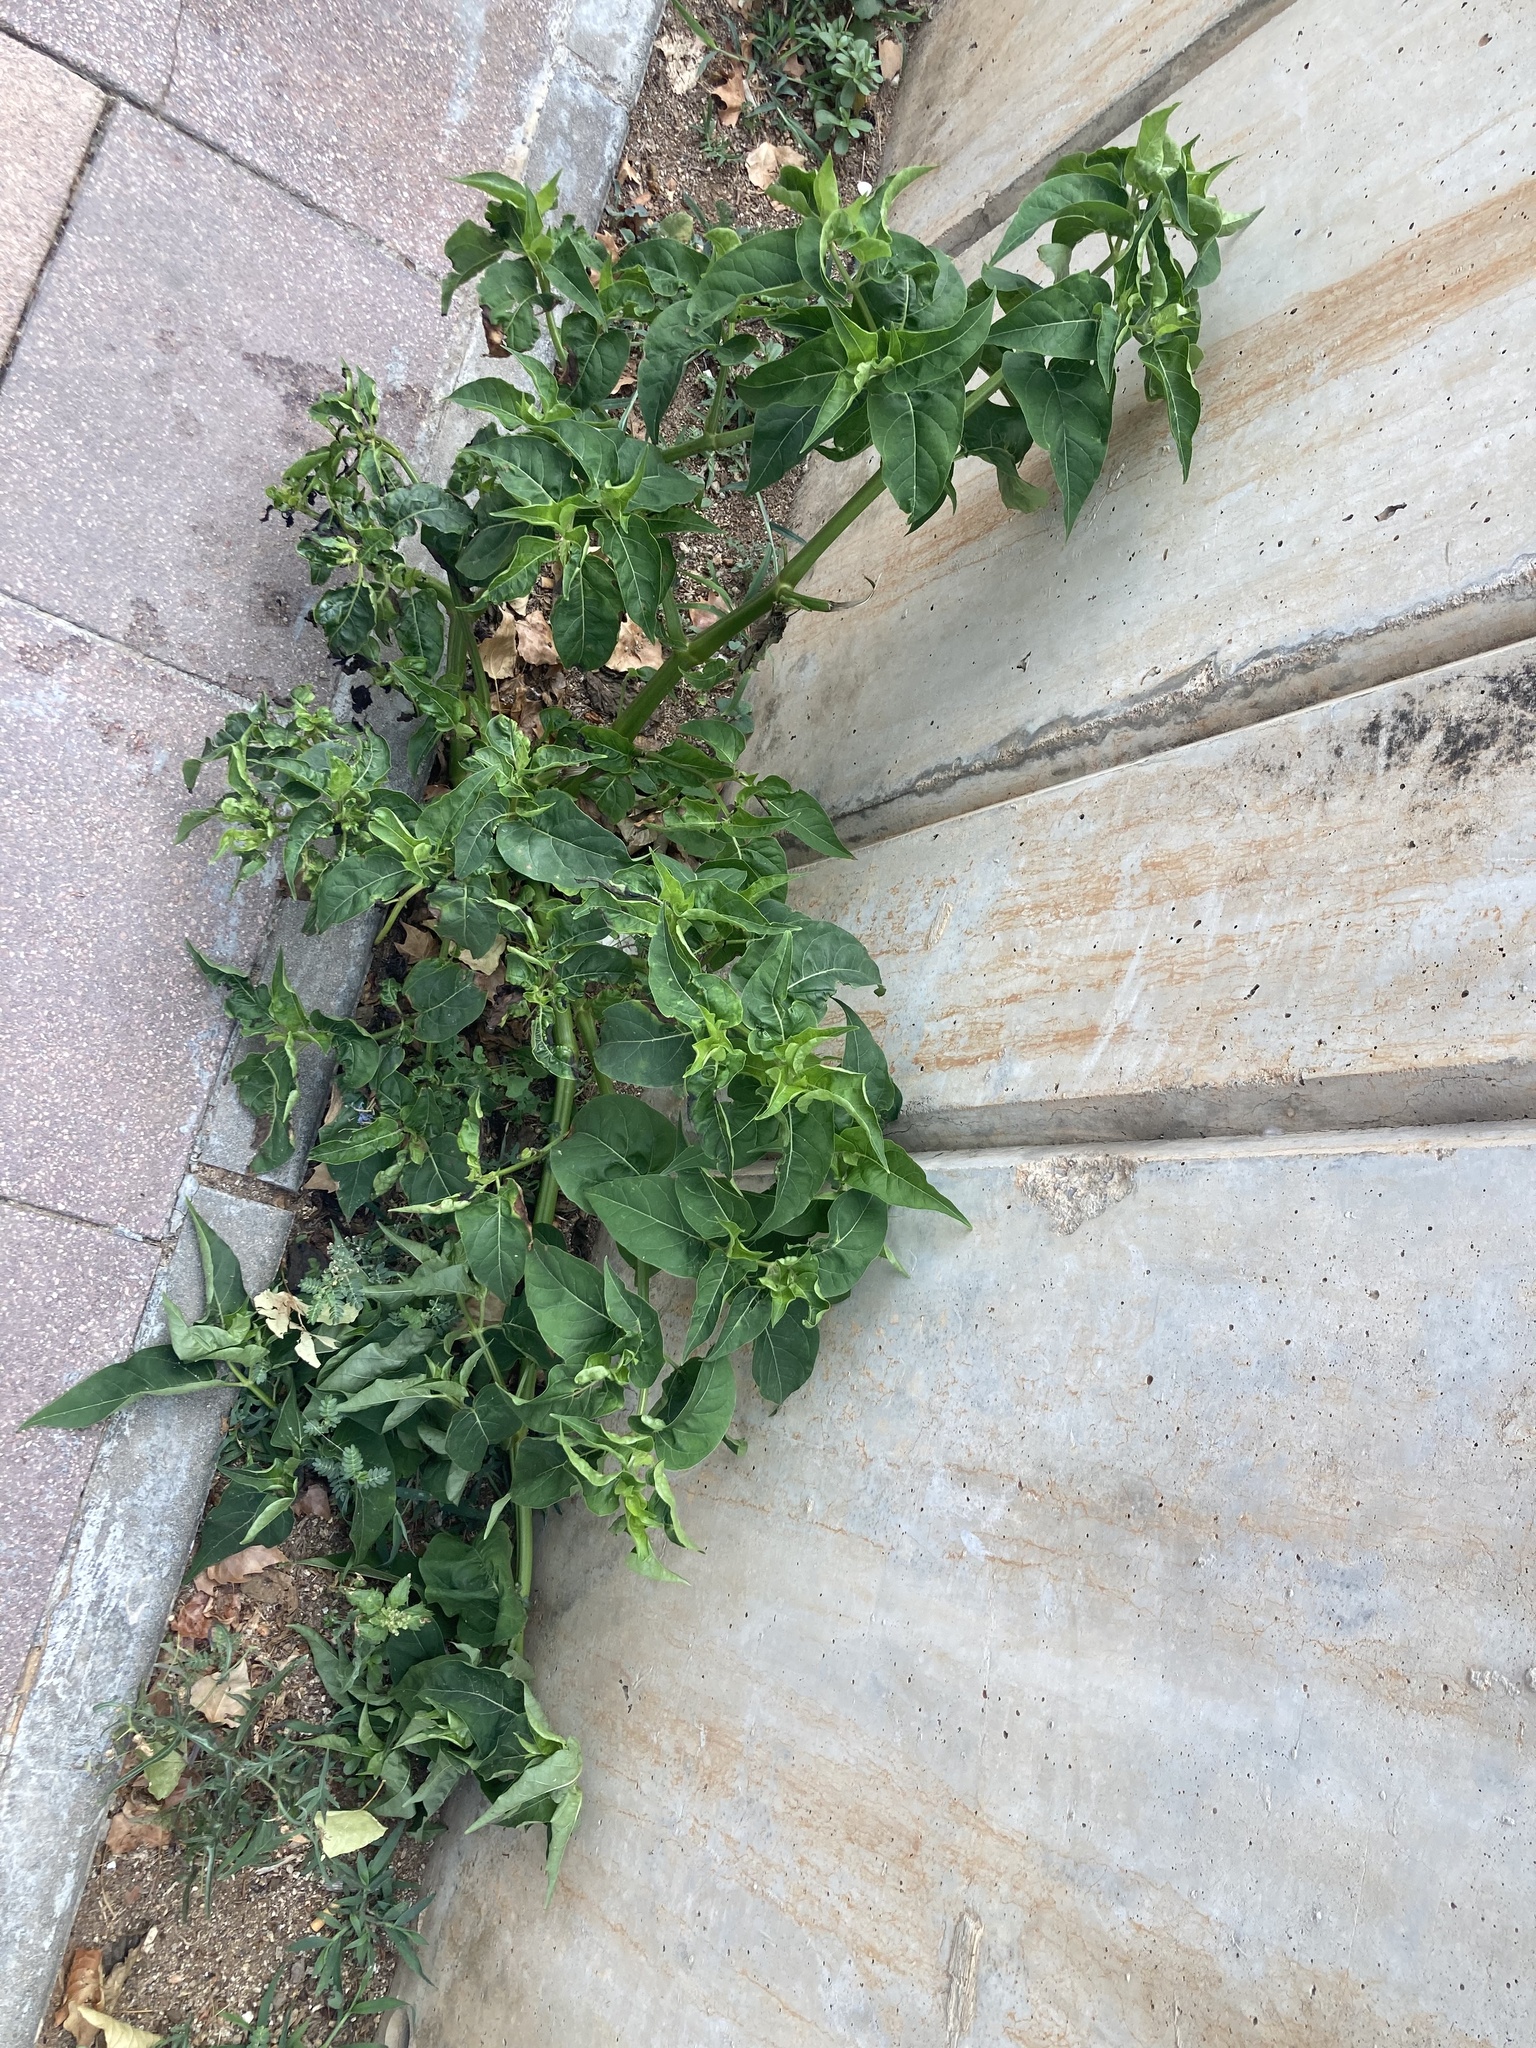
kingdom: Plantae
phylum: Tracheophyta
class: Magnoliopsida
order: Caryophyllales
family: Nyctaginaceae
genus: Mirabilis
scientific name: Mirabilis jalapa
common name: Marvel-of-peru
